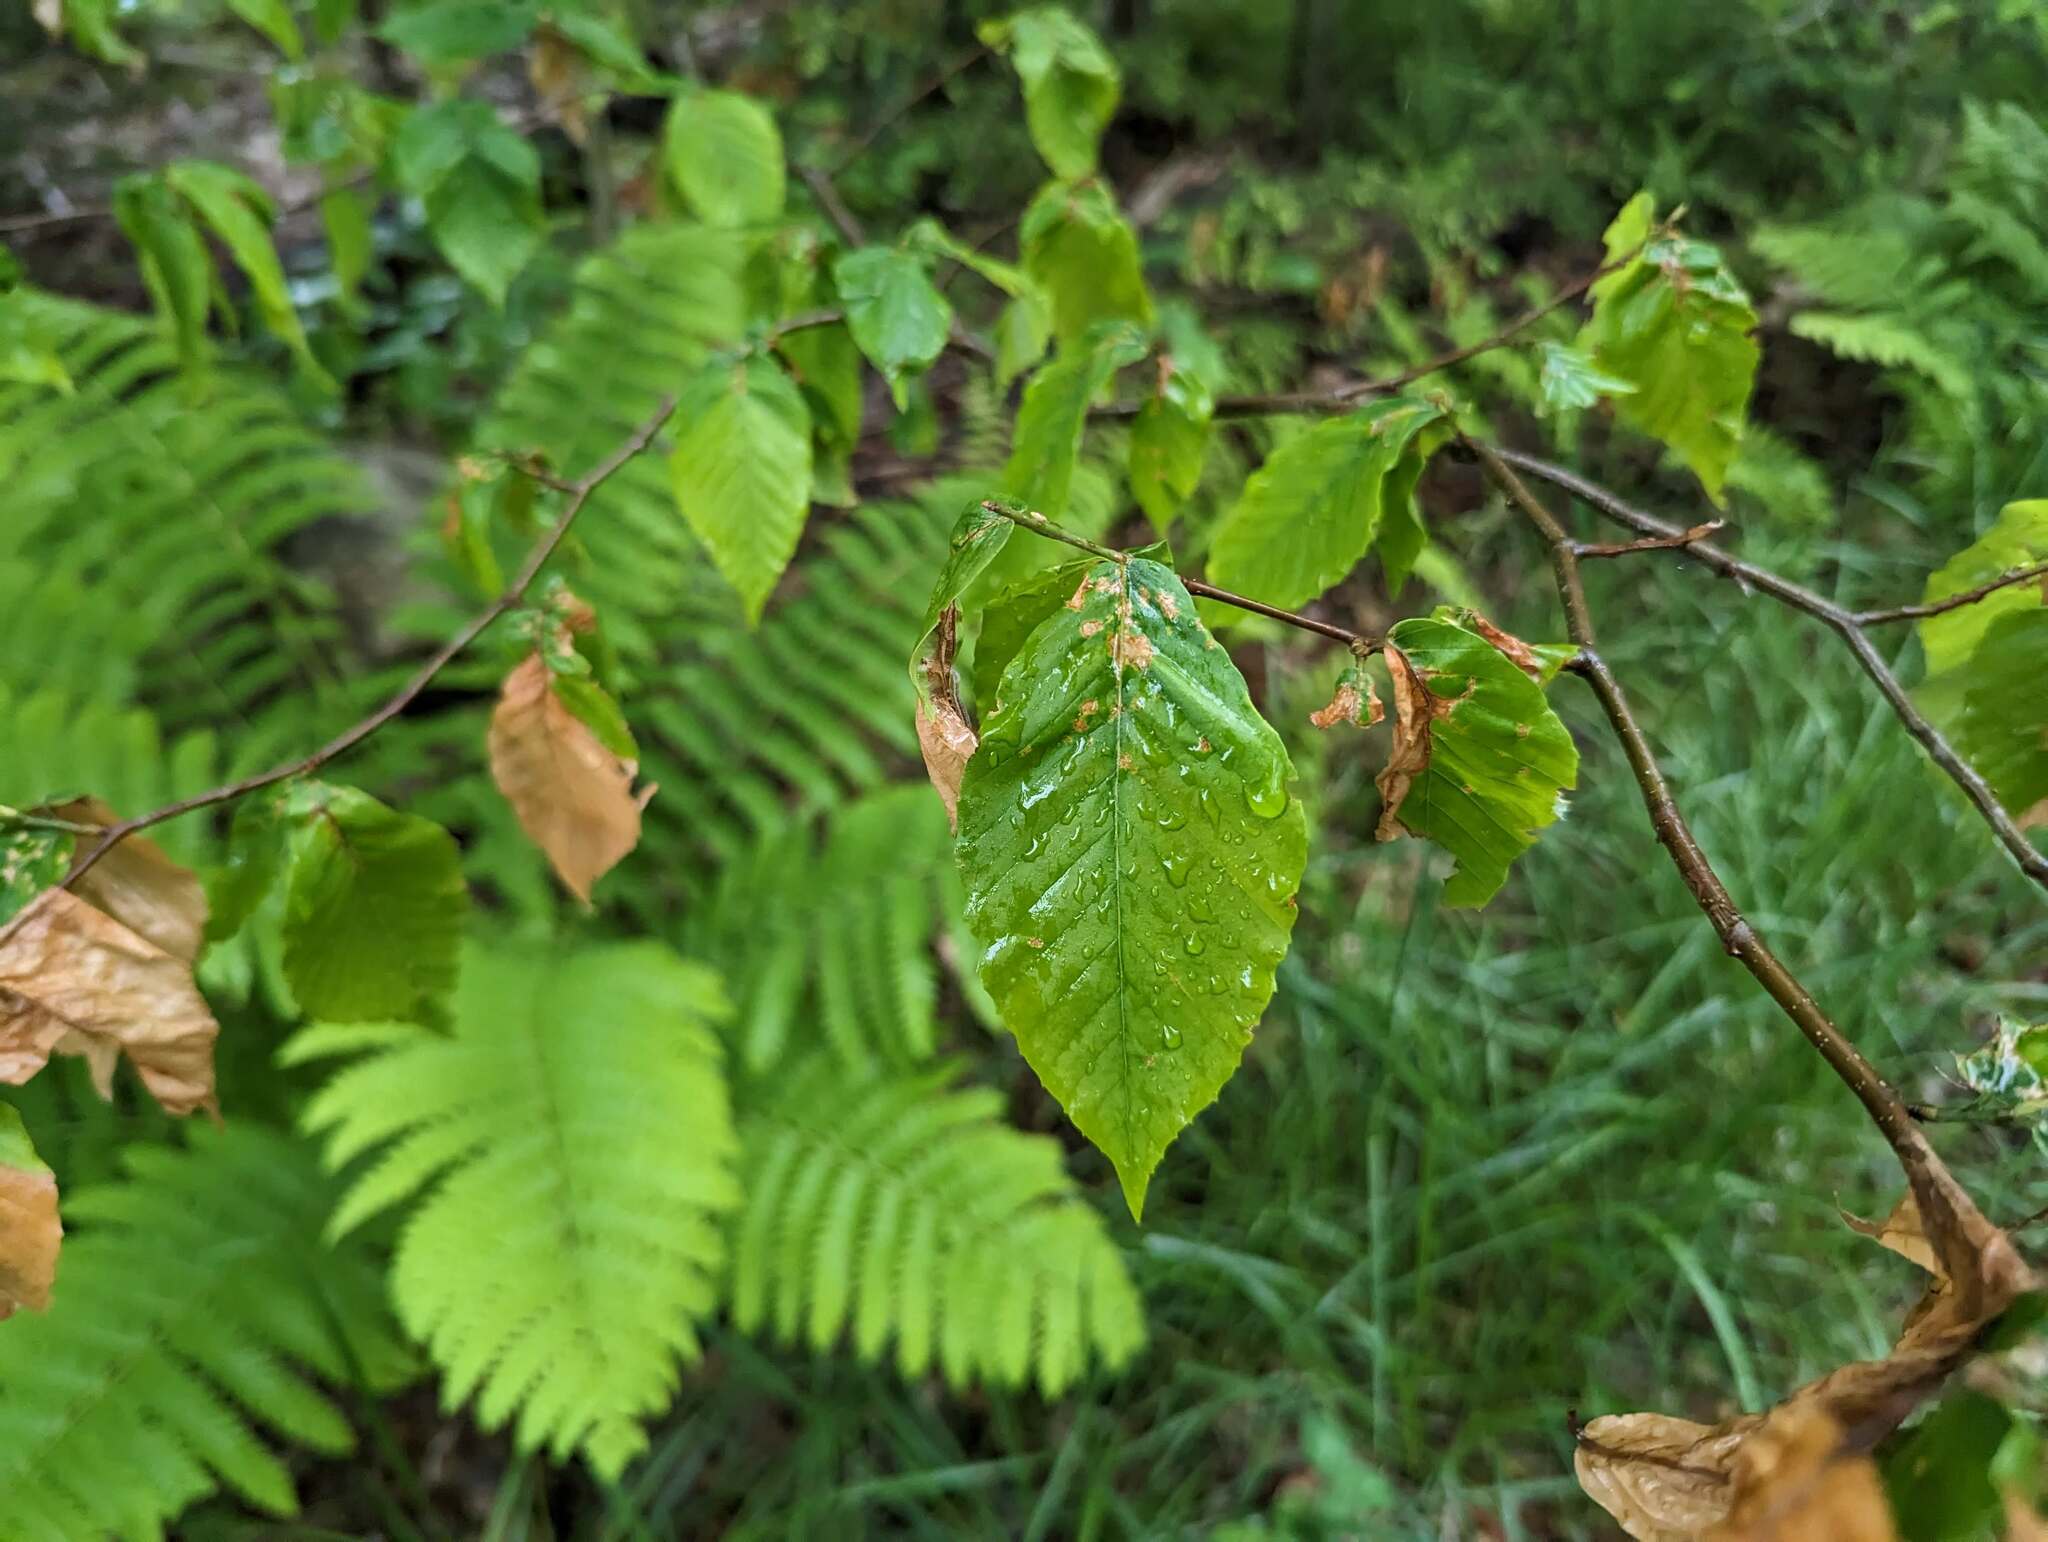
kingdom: Plantae
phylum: Tracheophyta
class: Magnoliopsida
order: Fagales
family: Fagaceae
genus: Fagus
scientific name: Fagus grandifolia
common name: American beech
